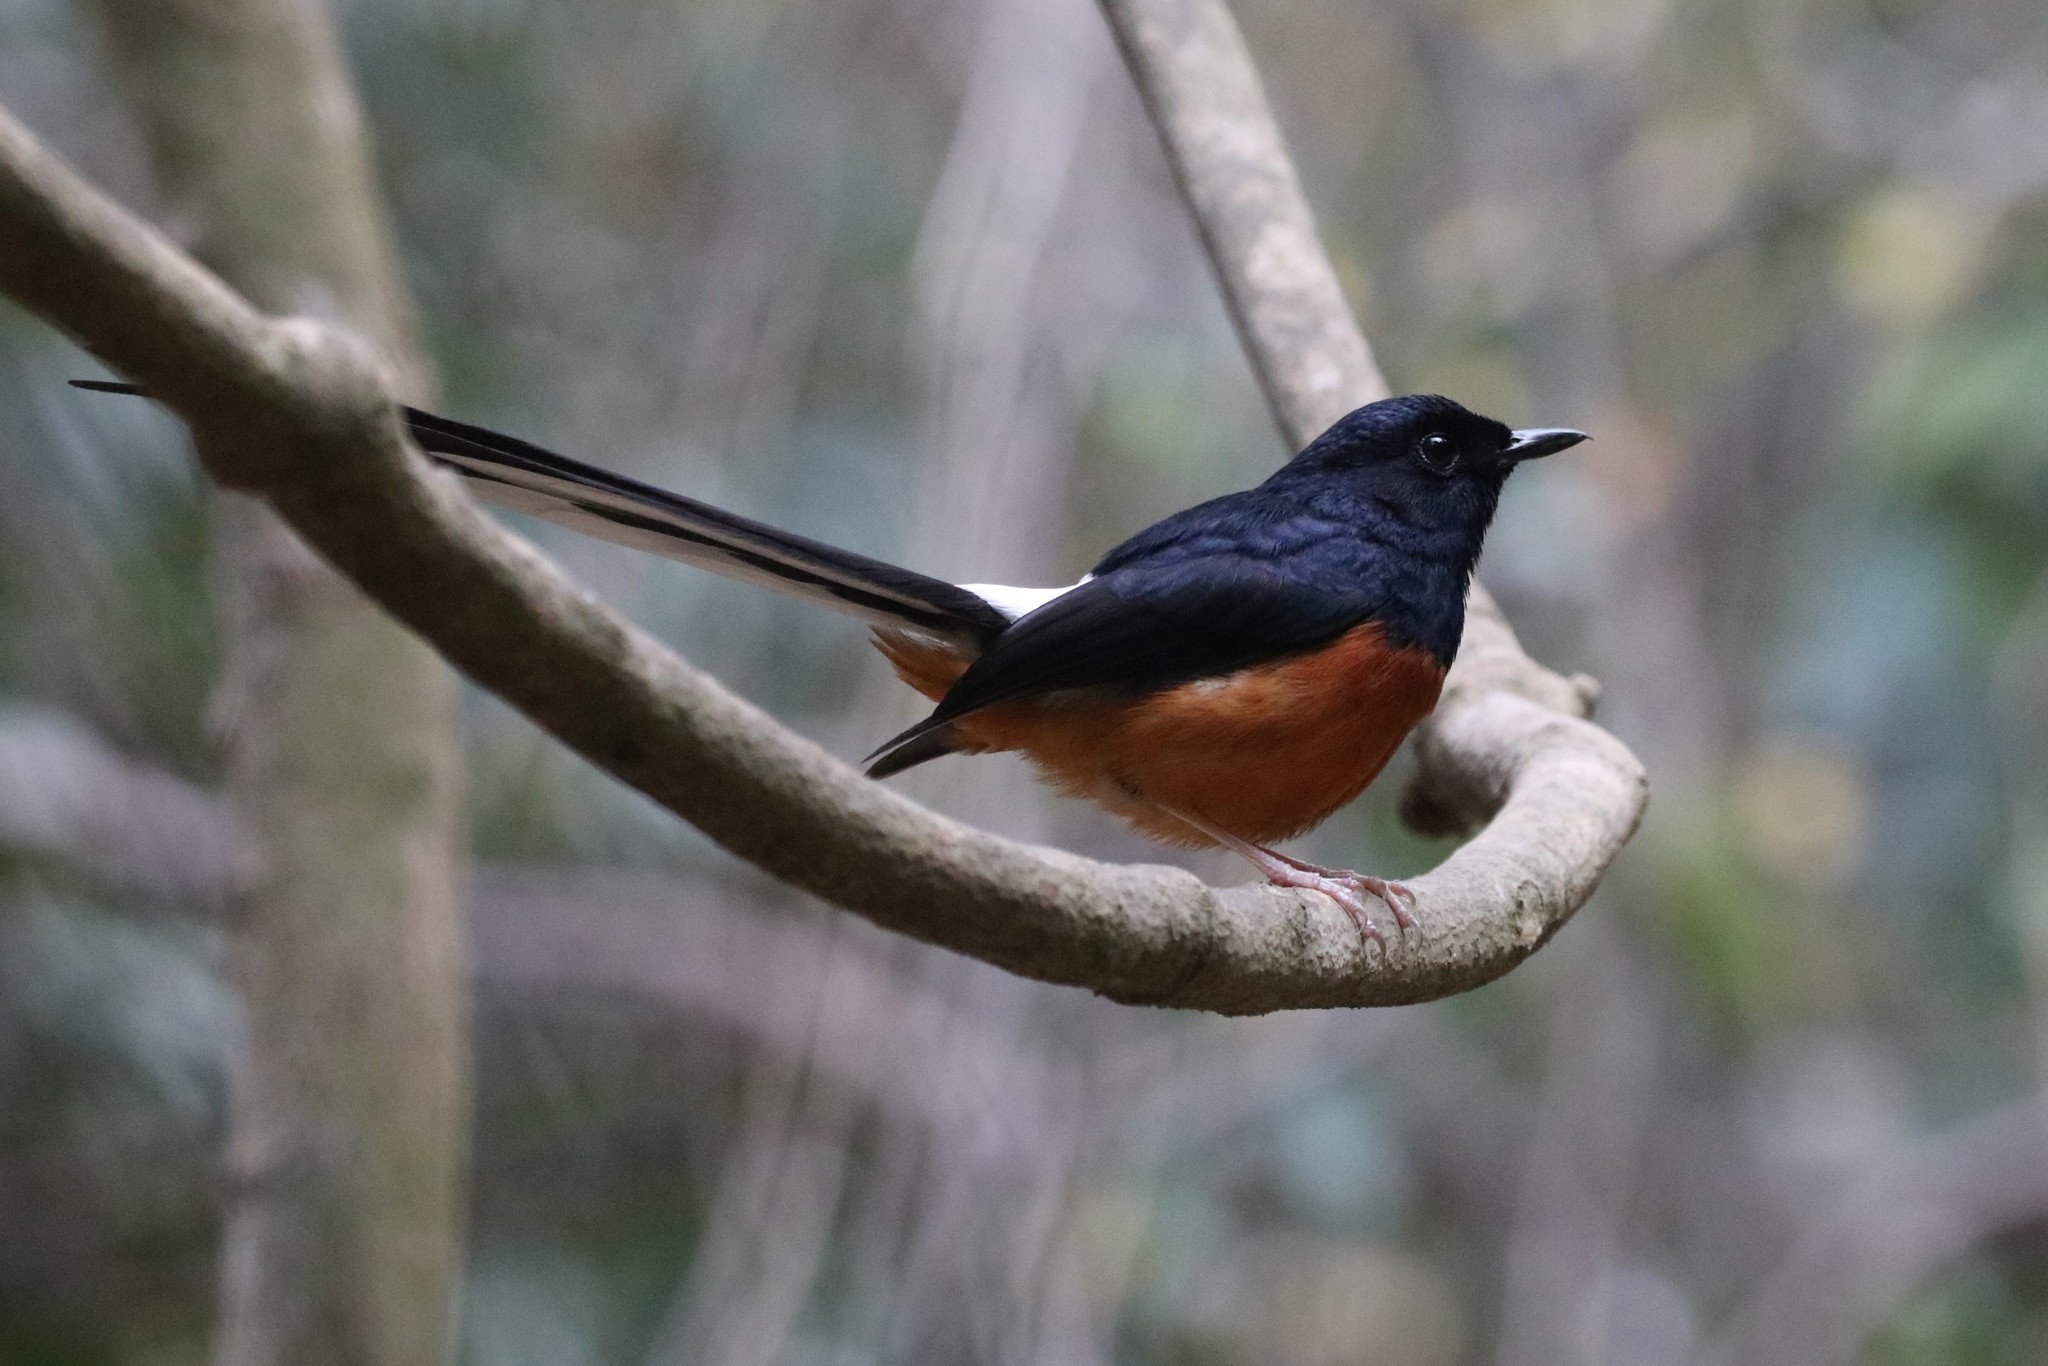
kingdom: Animalia
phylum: Chordata
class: Aves
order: Passeriformes
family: Muscicapidae
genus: Copsychus
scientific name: Copsychus malabaricus
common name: White-rumped shama
